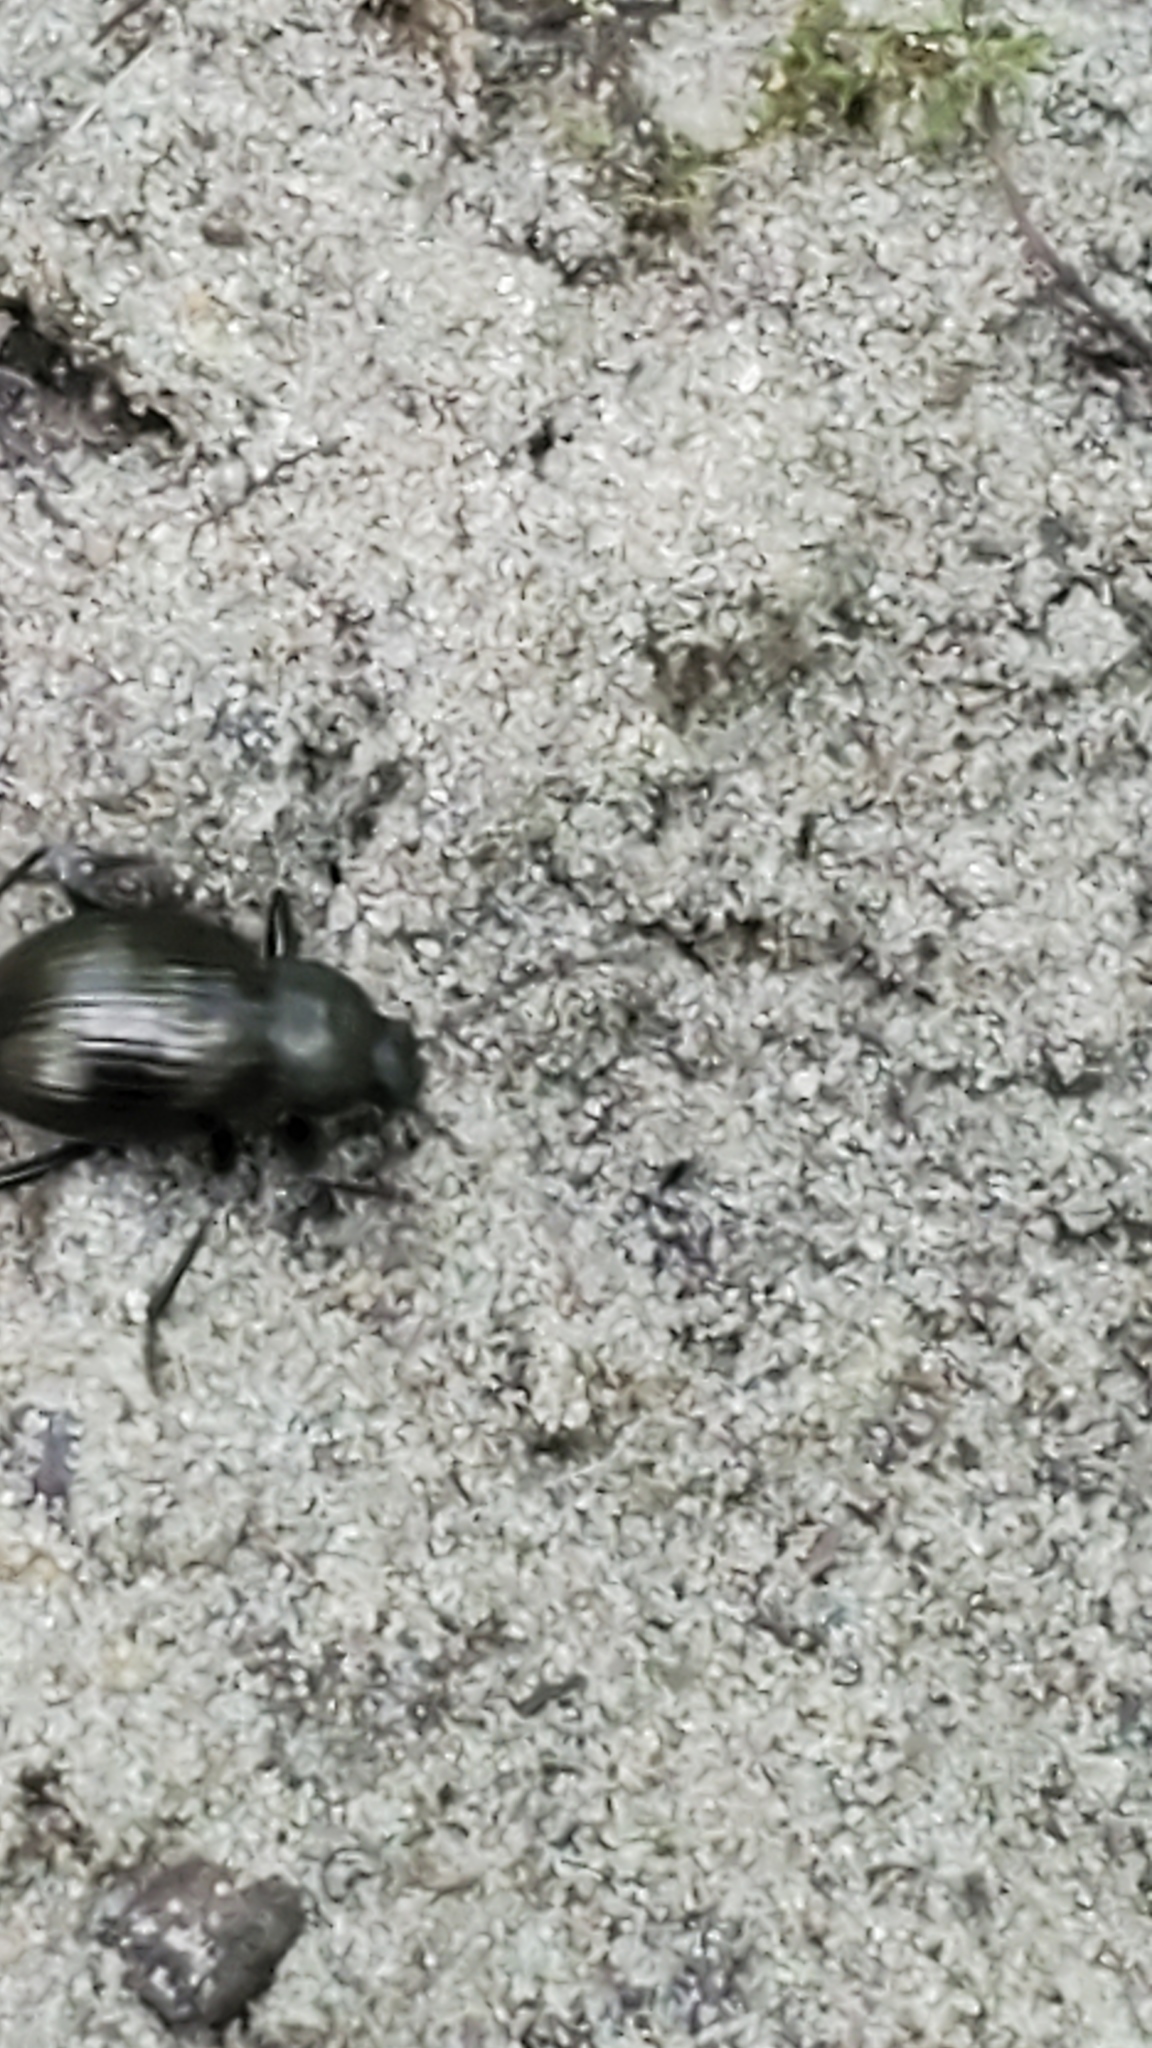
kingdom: Animalia
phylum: Arthropoda
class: Insecta
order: Coleoptera
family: Tenebrionidae
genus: Meracantha
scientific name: Meracantha contracta
